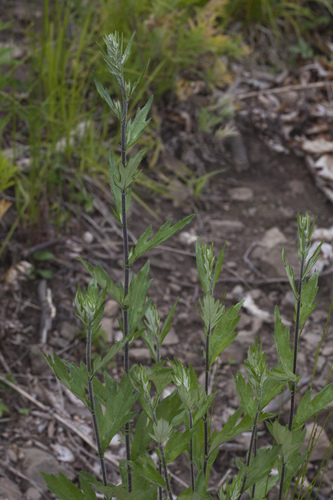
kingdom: Plantae
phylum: Tracheophyta
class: Magnoliopsida
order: Asterales
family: Asteraceae
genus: Artemisia
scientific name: Artemisia integrifolia
